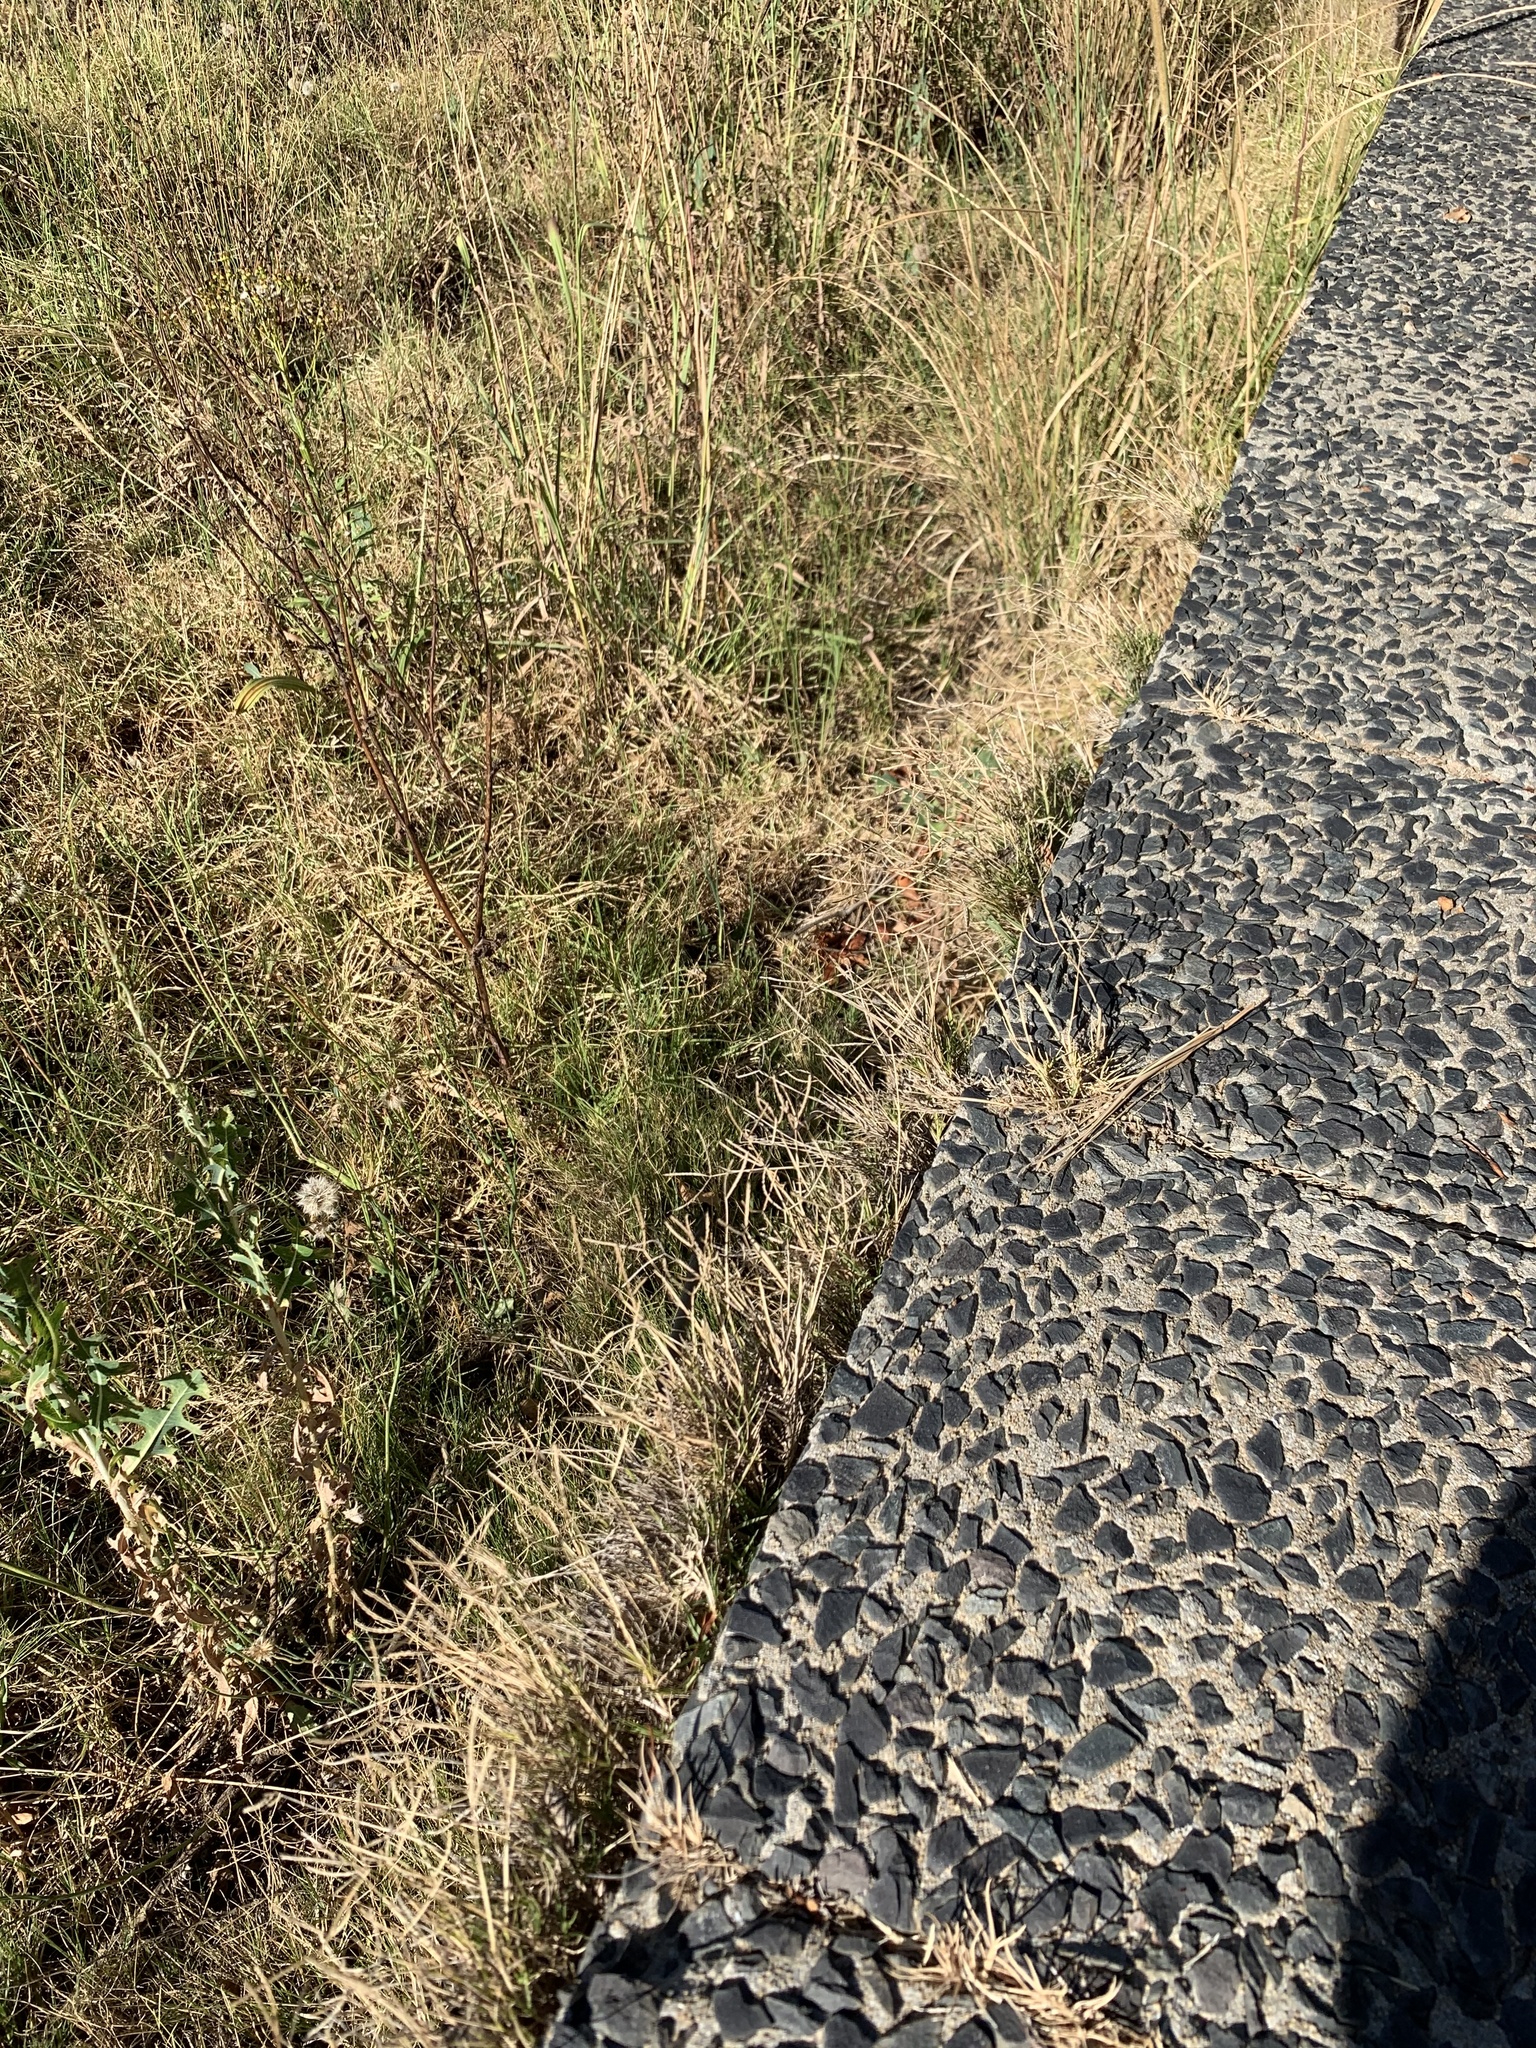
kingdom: Plantae
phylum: Tracheophyta
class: Liliopsida
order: Poales
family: Poaceae
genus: Cynodon
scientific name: Cynodon dactylon
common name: Bermuda grass
